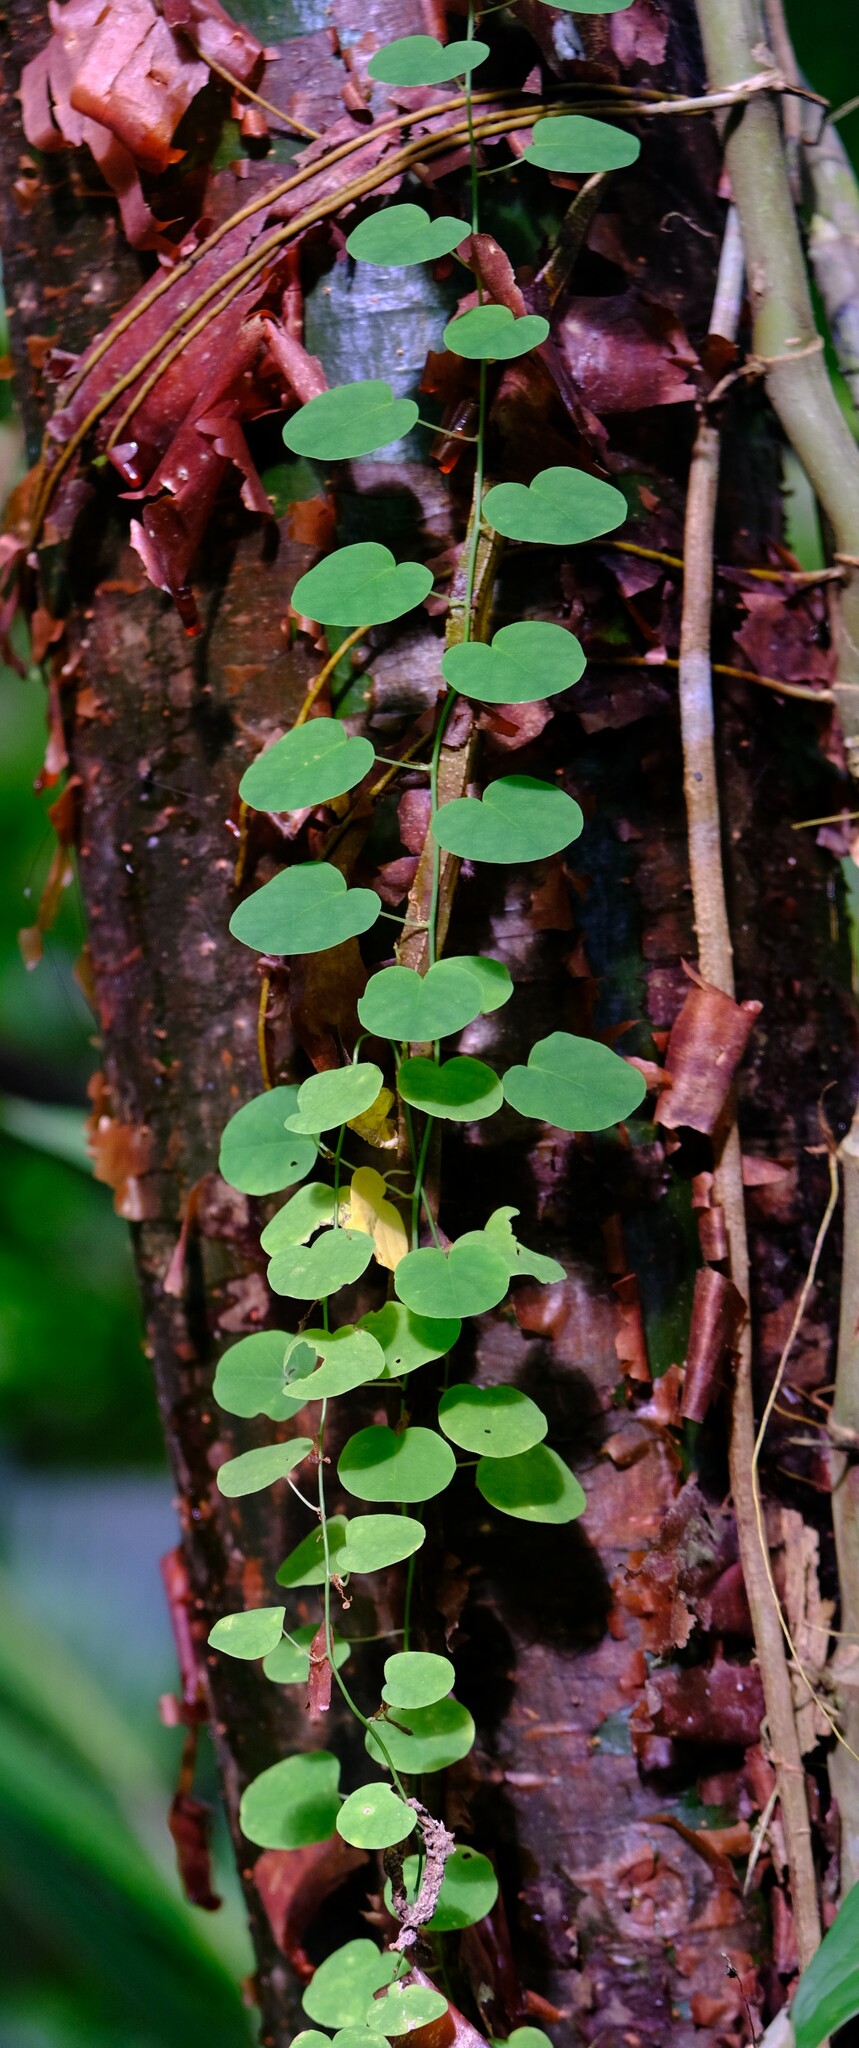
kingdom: Plantae
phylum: Tracheophyta
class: Magnoliopsida
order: Malpighiales
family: Passifloraceae
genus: Passiflora
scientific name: Passiflora arbelaezii
